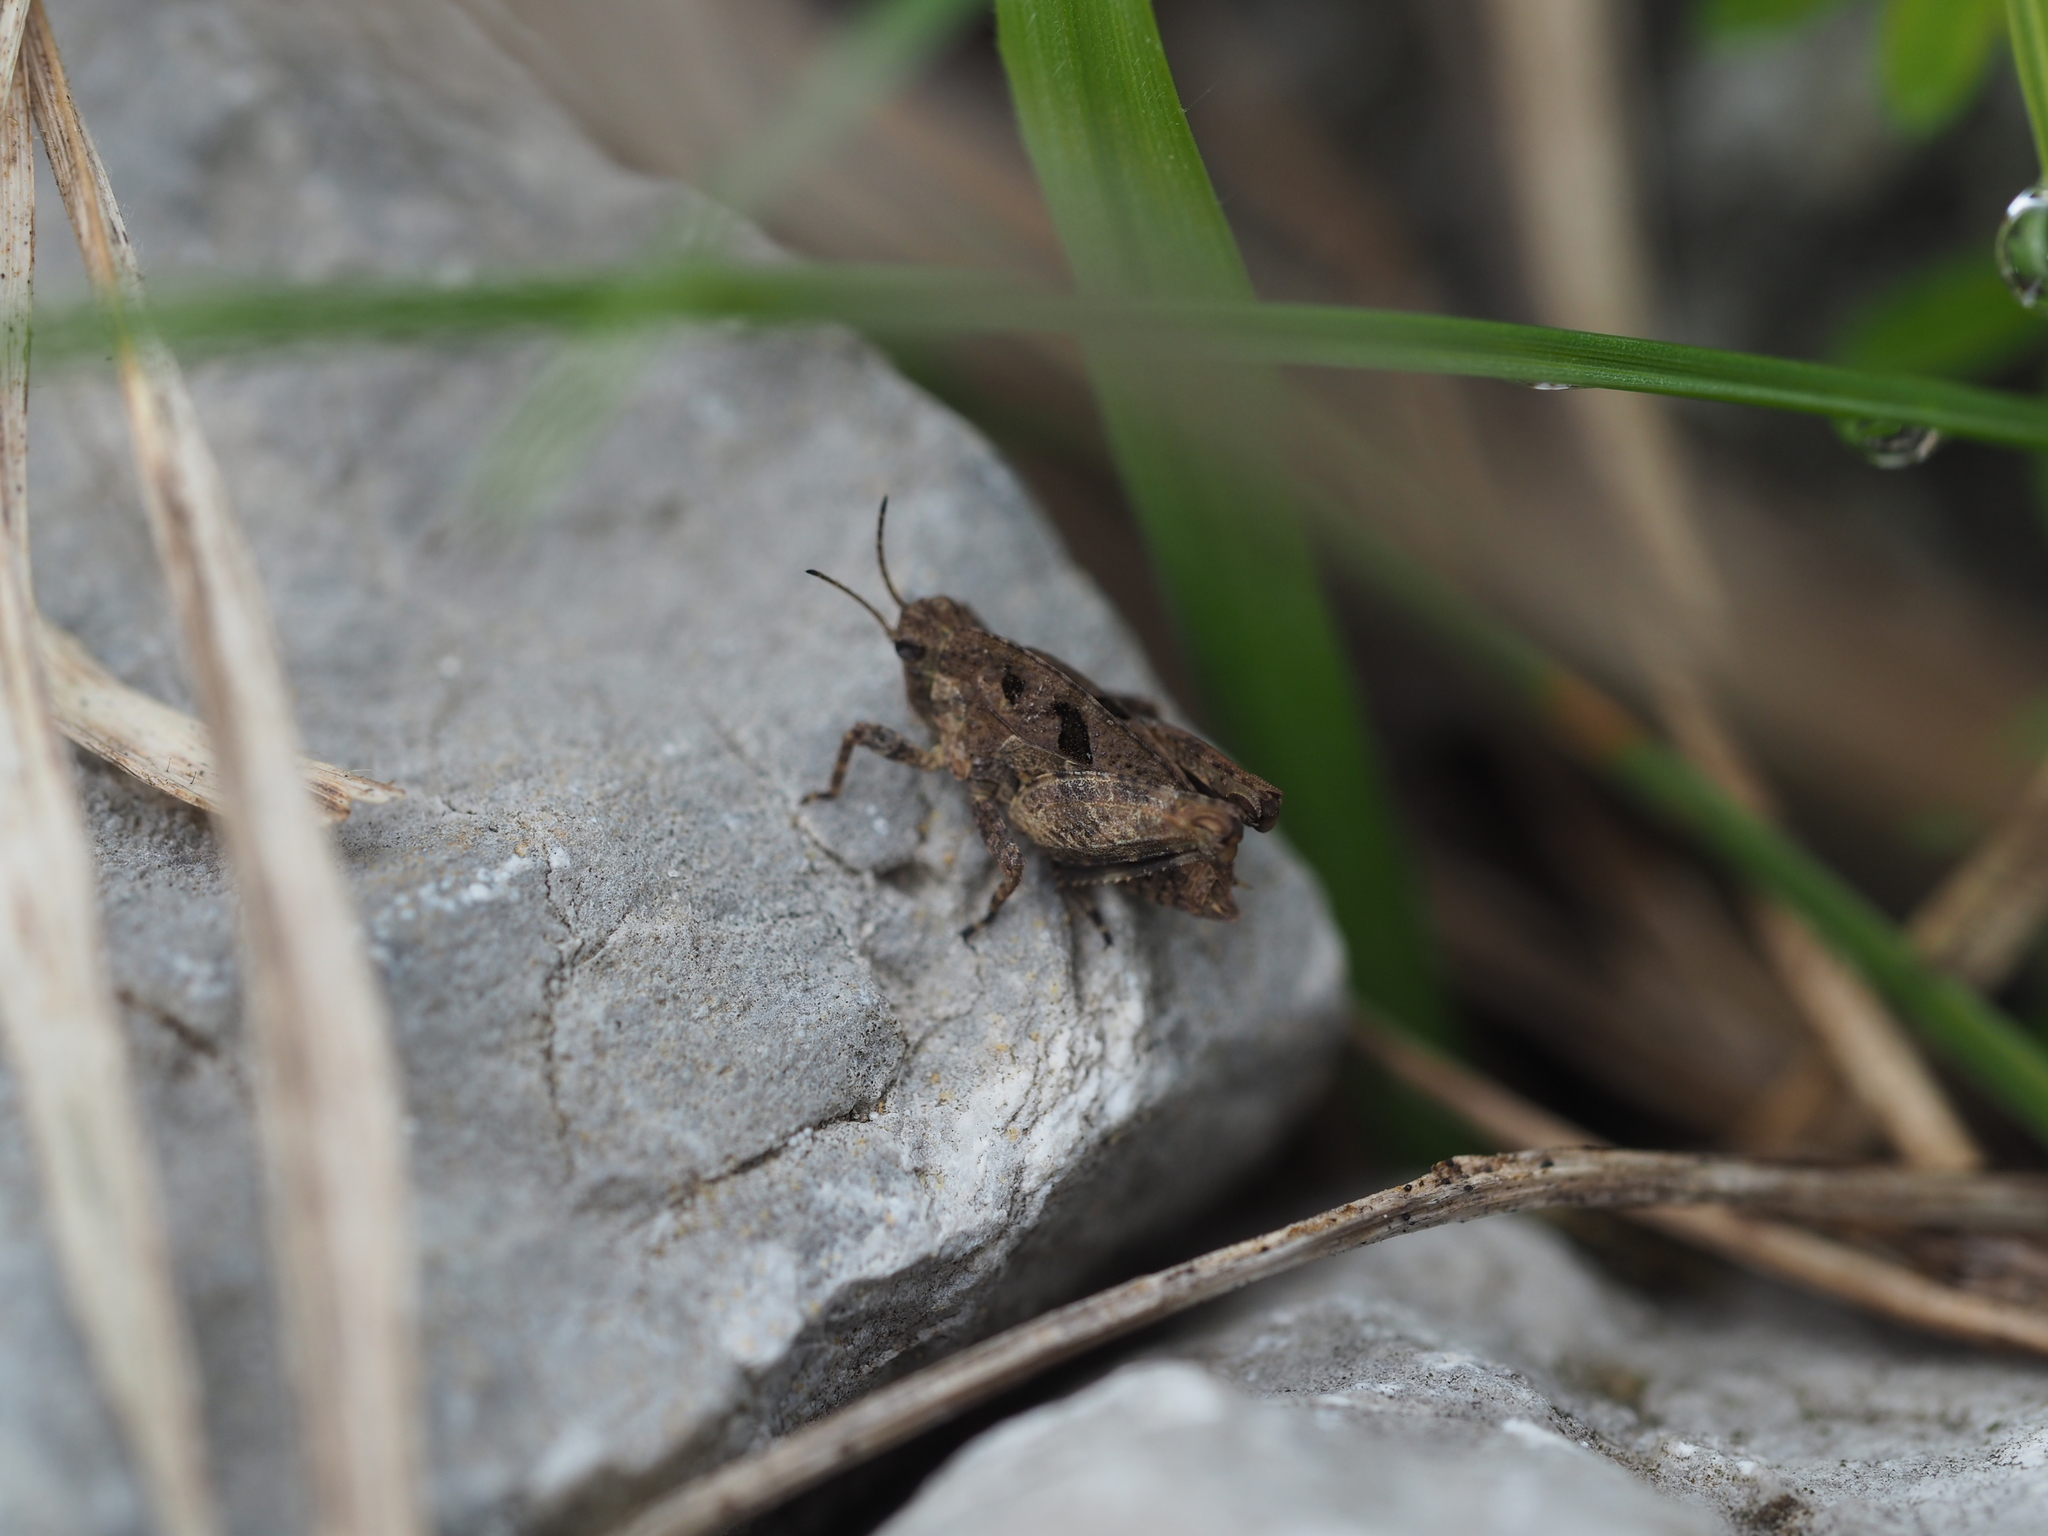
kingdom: Animalia
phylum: Arthropoda
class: Insecta
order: Orthoptera
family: Tetrigidae
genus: Tetrix
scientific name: Tetrix tenuicornis
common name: Long-horned groundhopper
